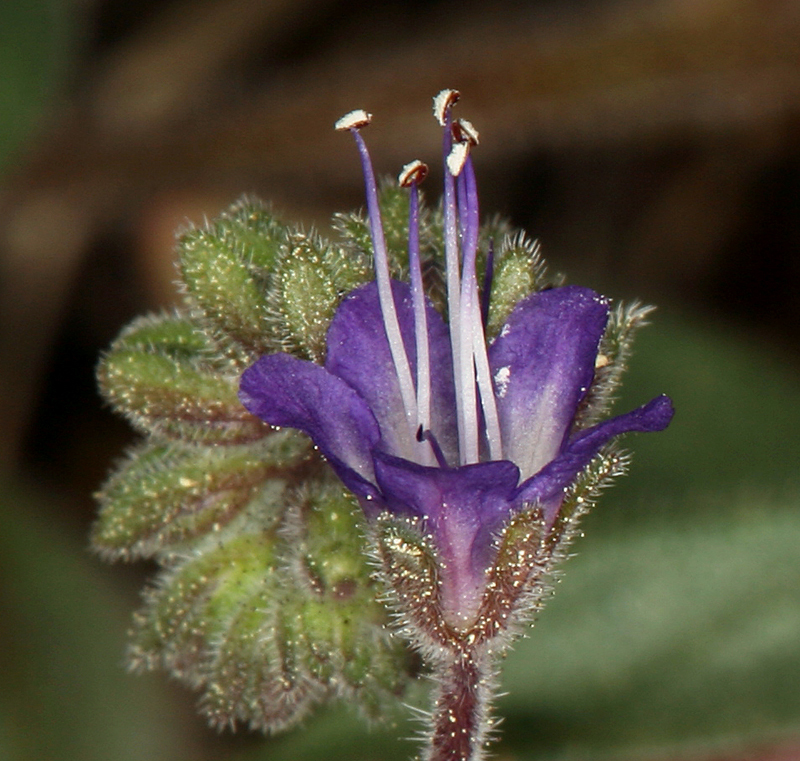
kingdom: Plantae
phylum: Tracheophyta
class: Magnoliopsida
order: Boraginales
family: Hydrophyllaceae
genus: Phacelia
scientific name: Phacelia marcescens
